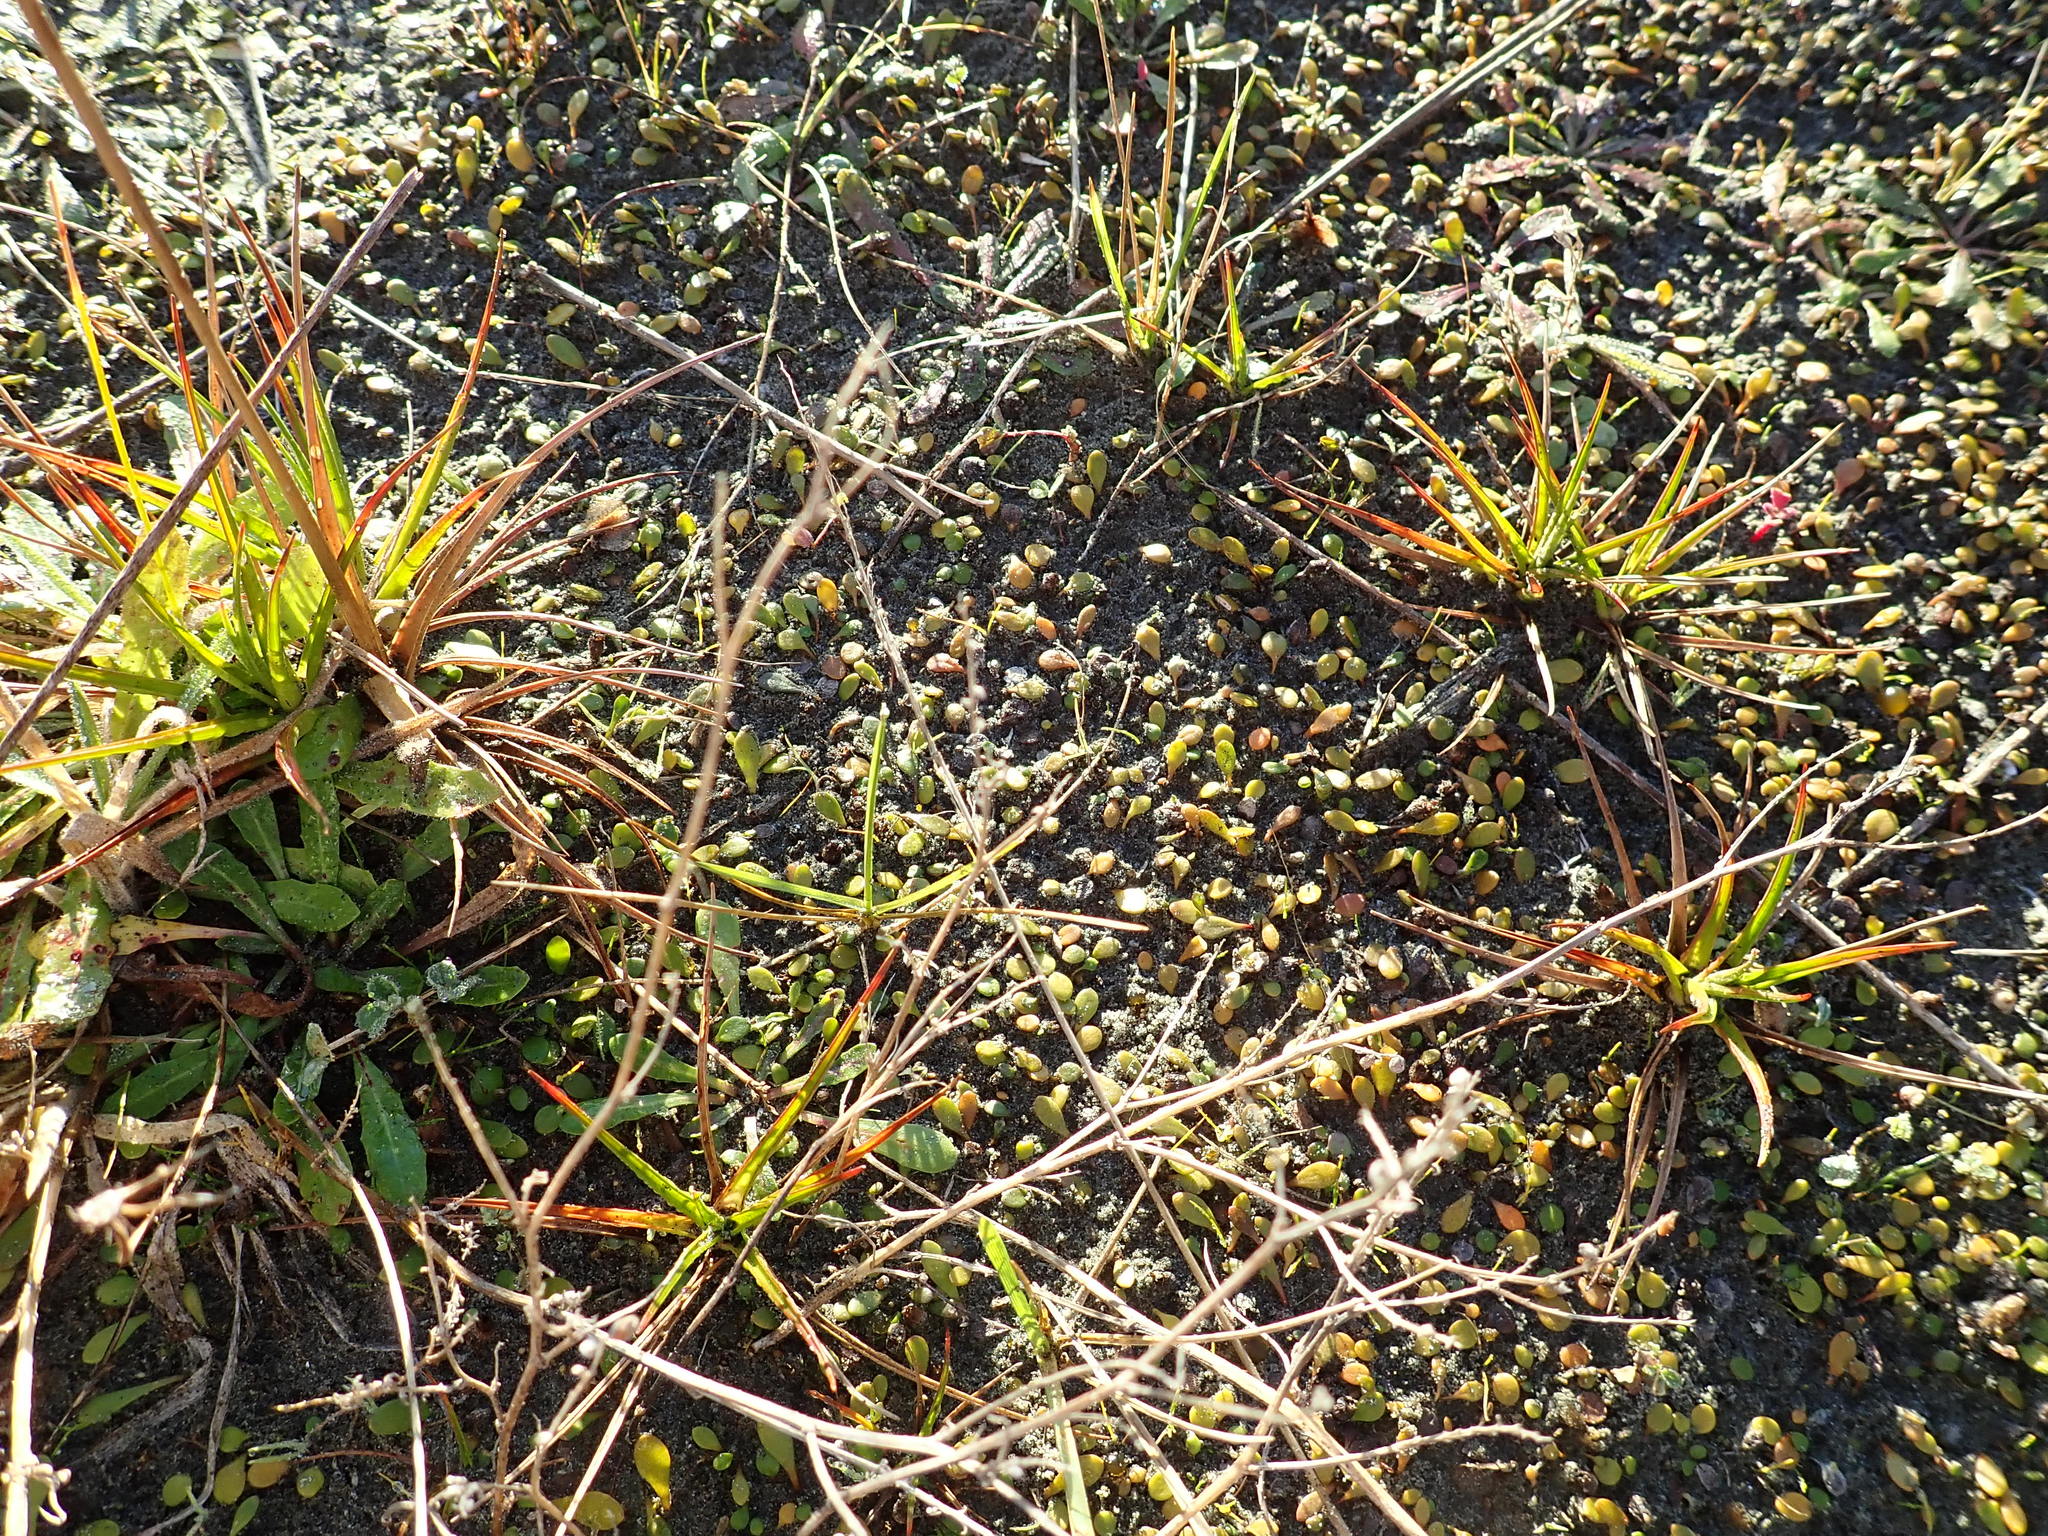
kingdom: Plantae
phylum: Tracheophyta
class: Liliopsida
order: Poales
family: Juncaceae
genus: Juncus
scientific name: Juncus caespiticius
